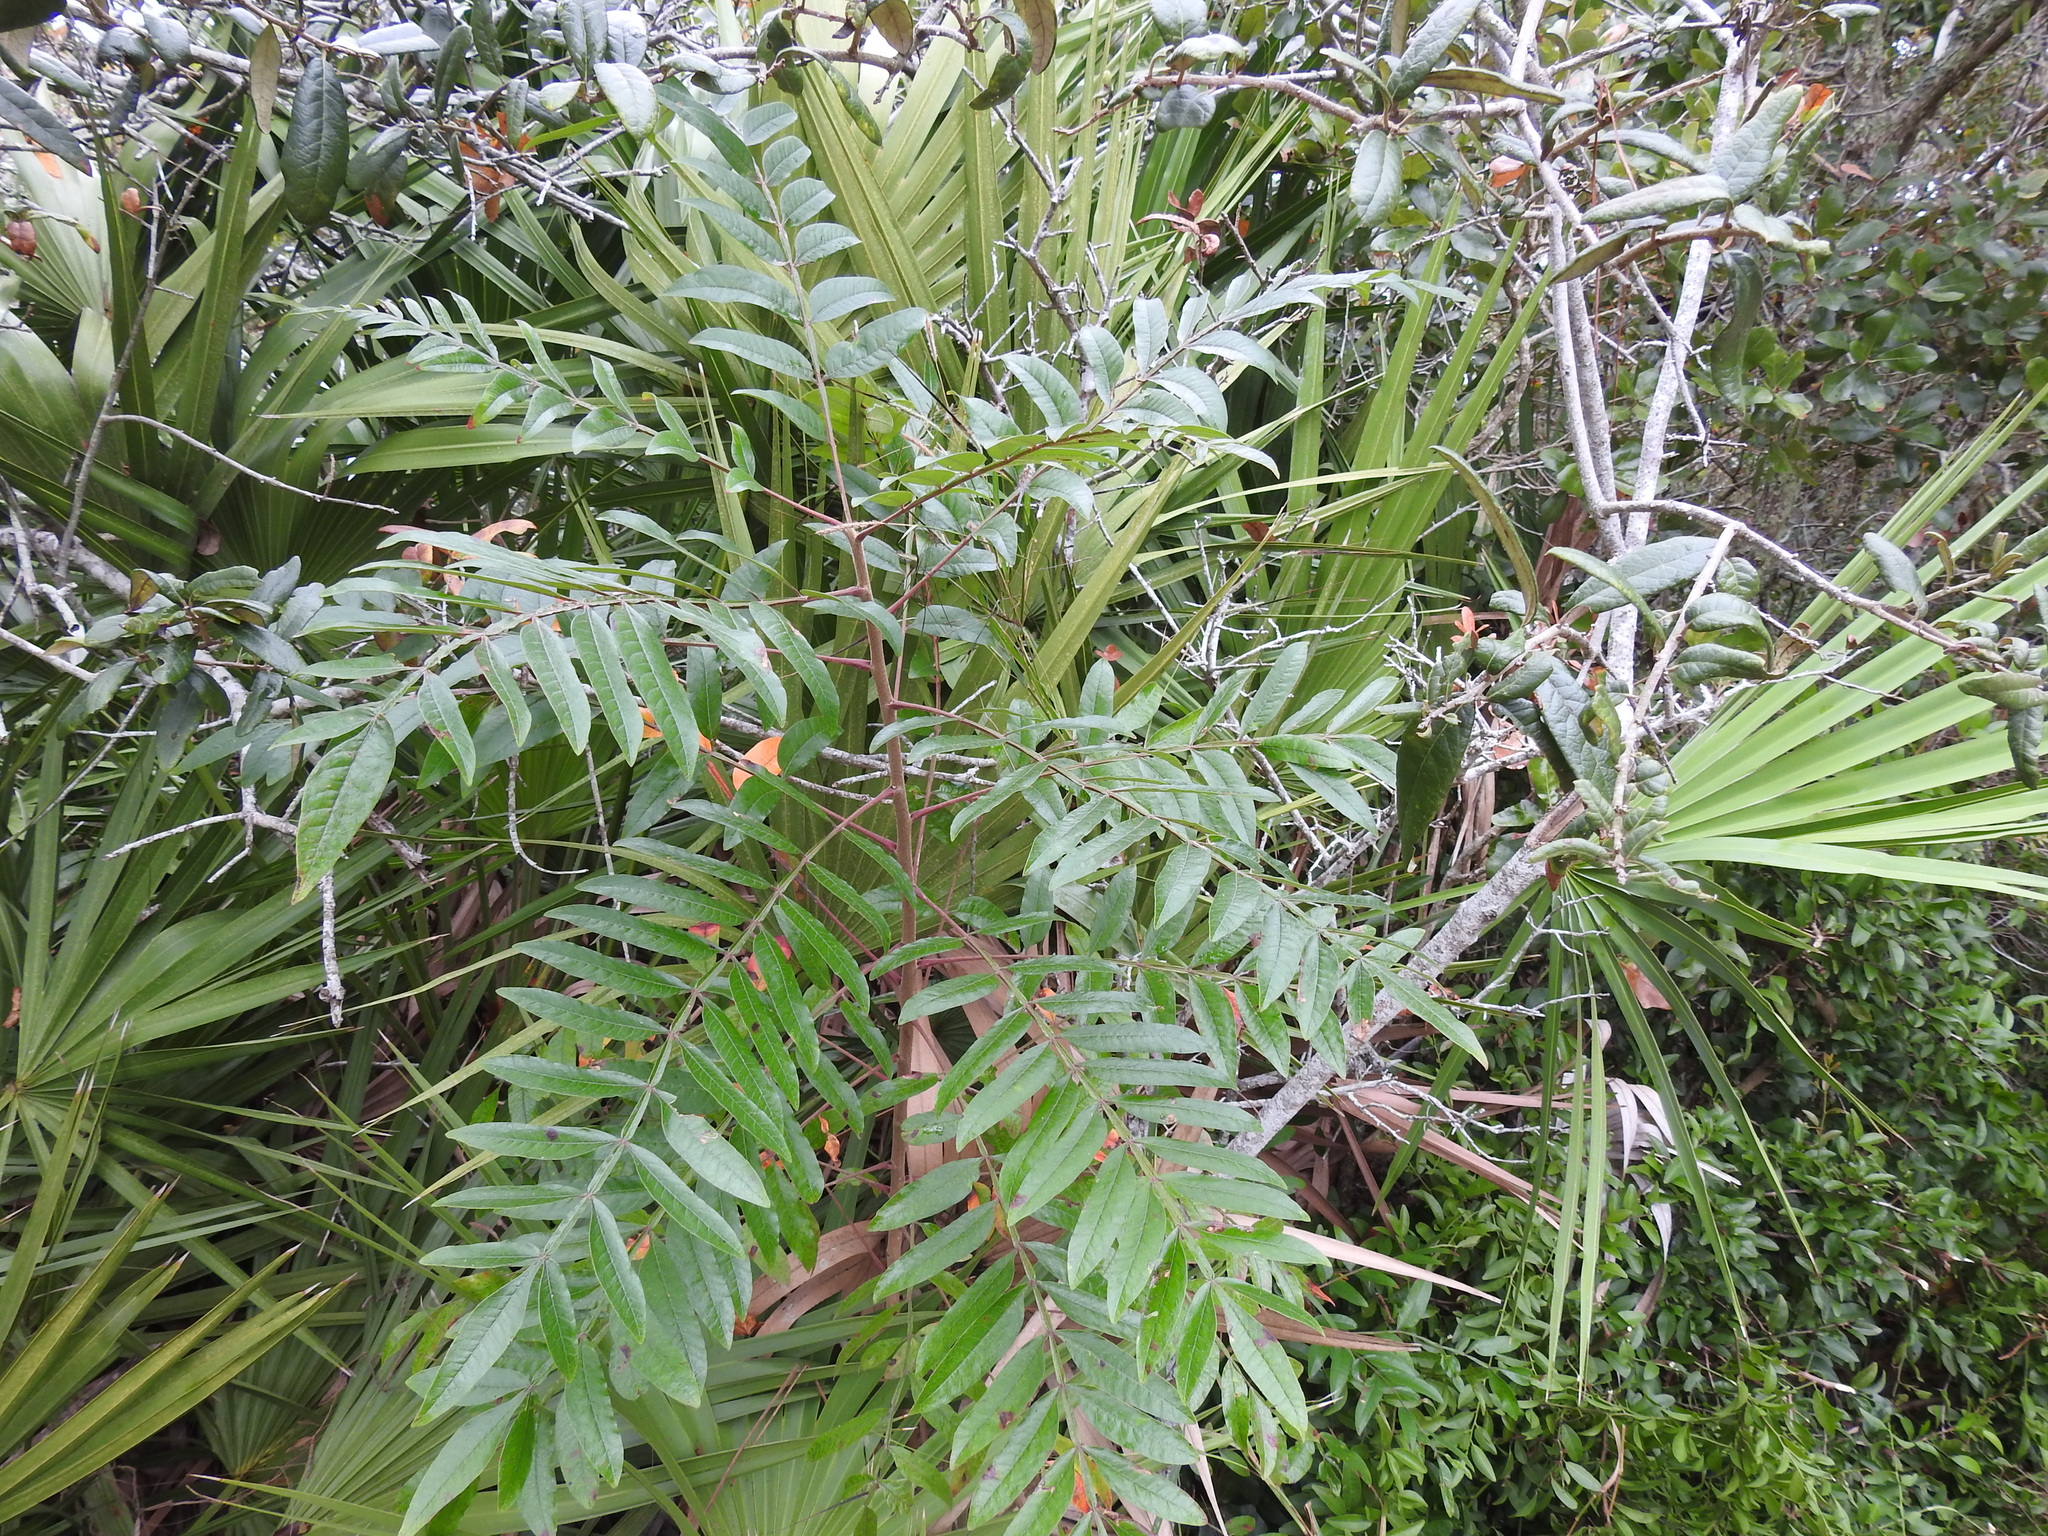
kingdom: Plantae
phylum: Tracheophyta
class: Magnoliopsida
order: Sapindales
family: Anacardiaceae
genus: Rhus
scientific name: Rhus copallina
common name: Shining sumac
